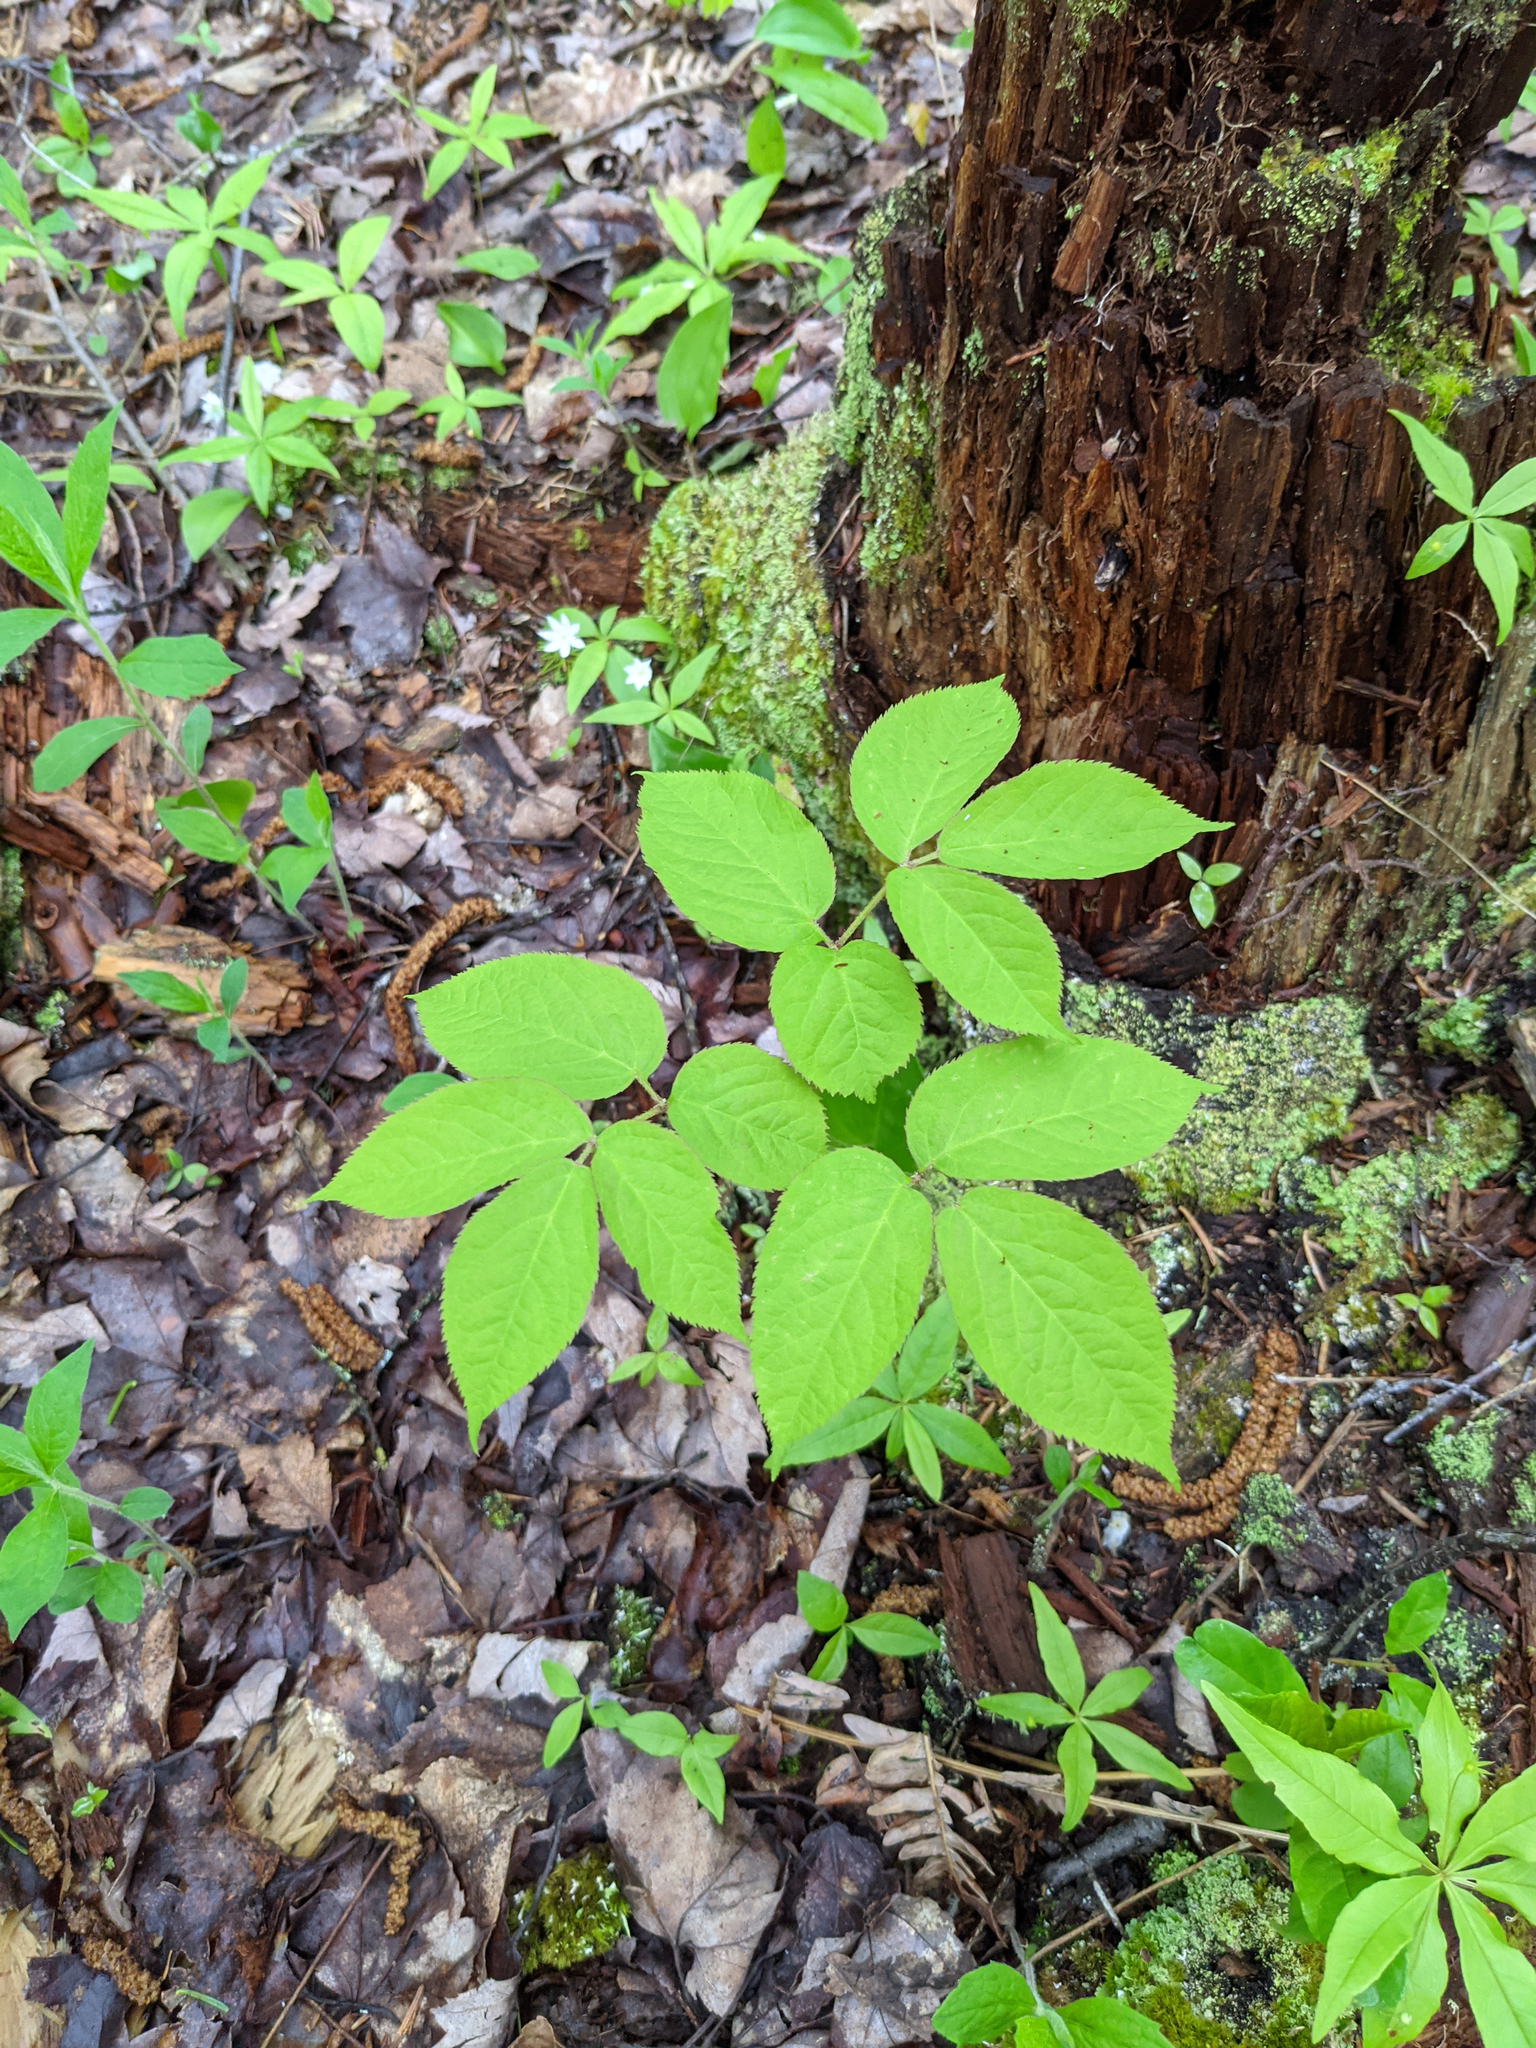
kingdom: Plantae
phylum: Tracheophyta
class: Magnoliopsida
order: Apiales
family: Araliaceae
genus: Aralia
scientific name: Aralia nudicaulis
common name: Wild sarsaparilla
